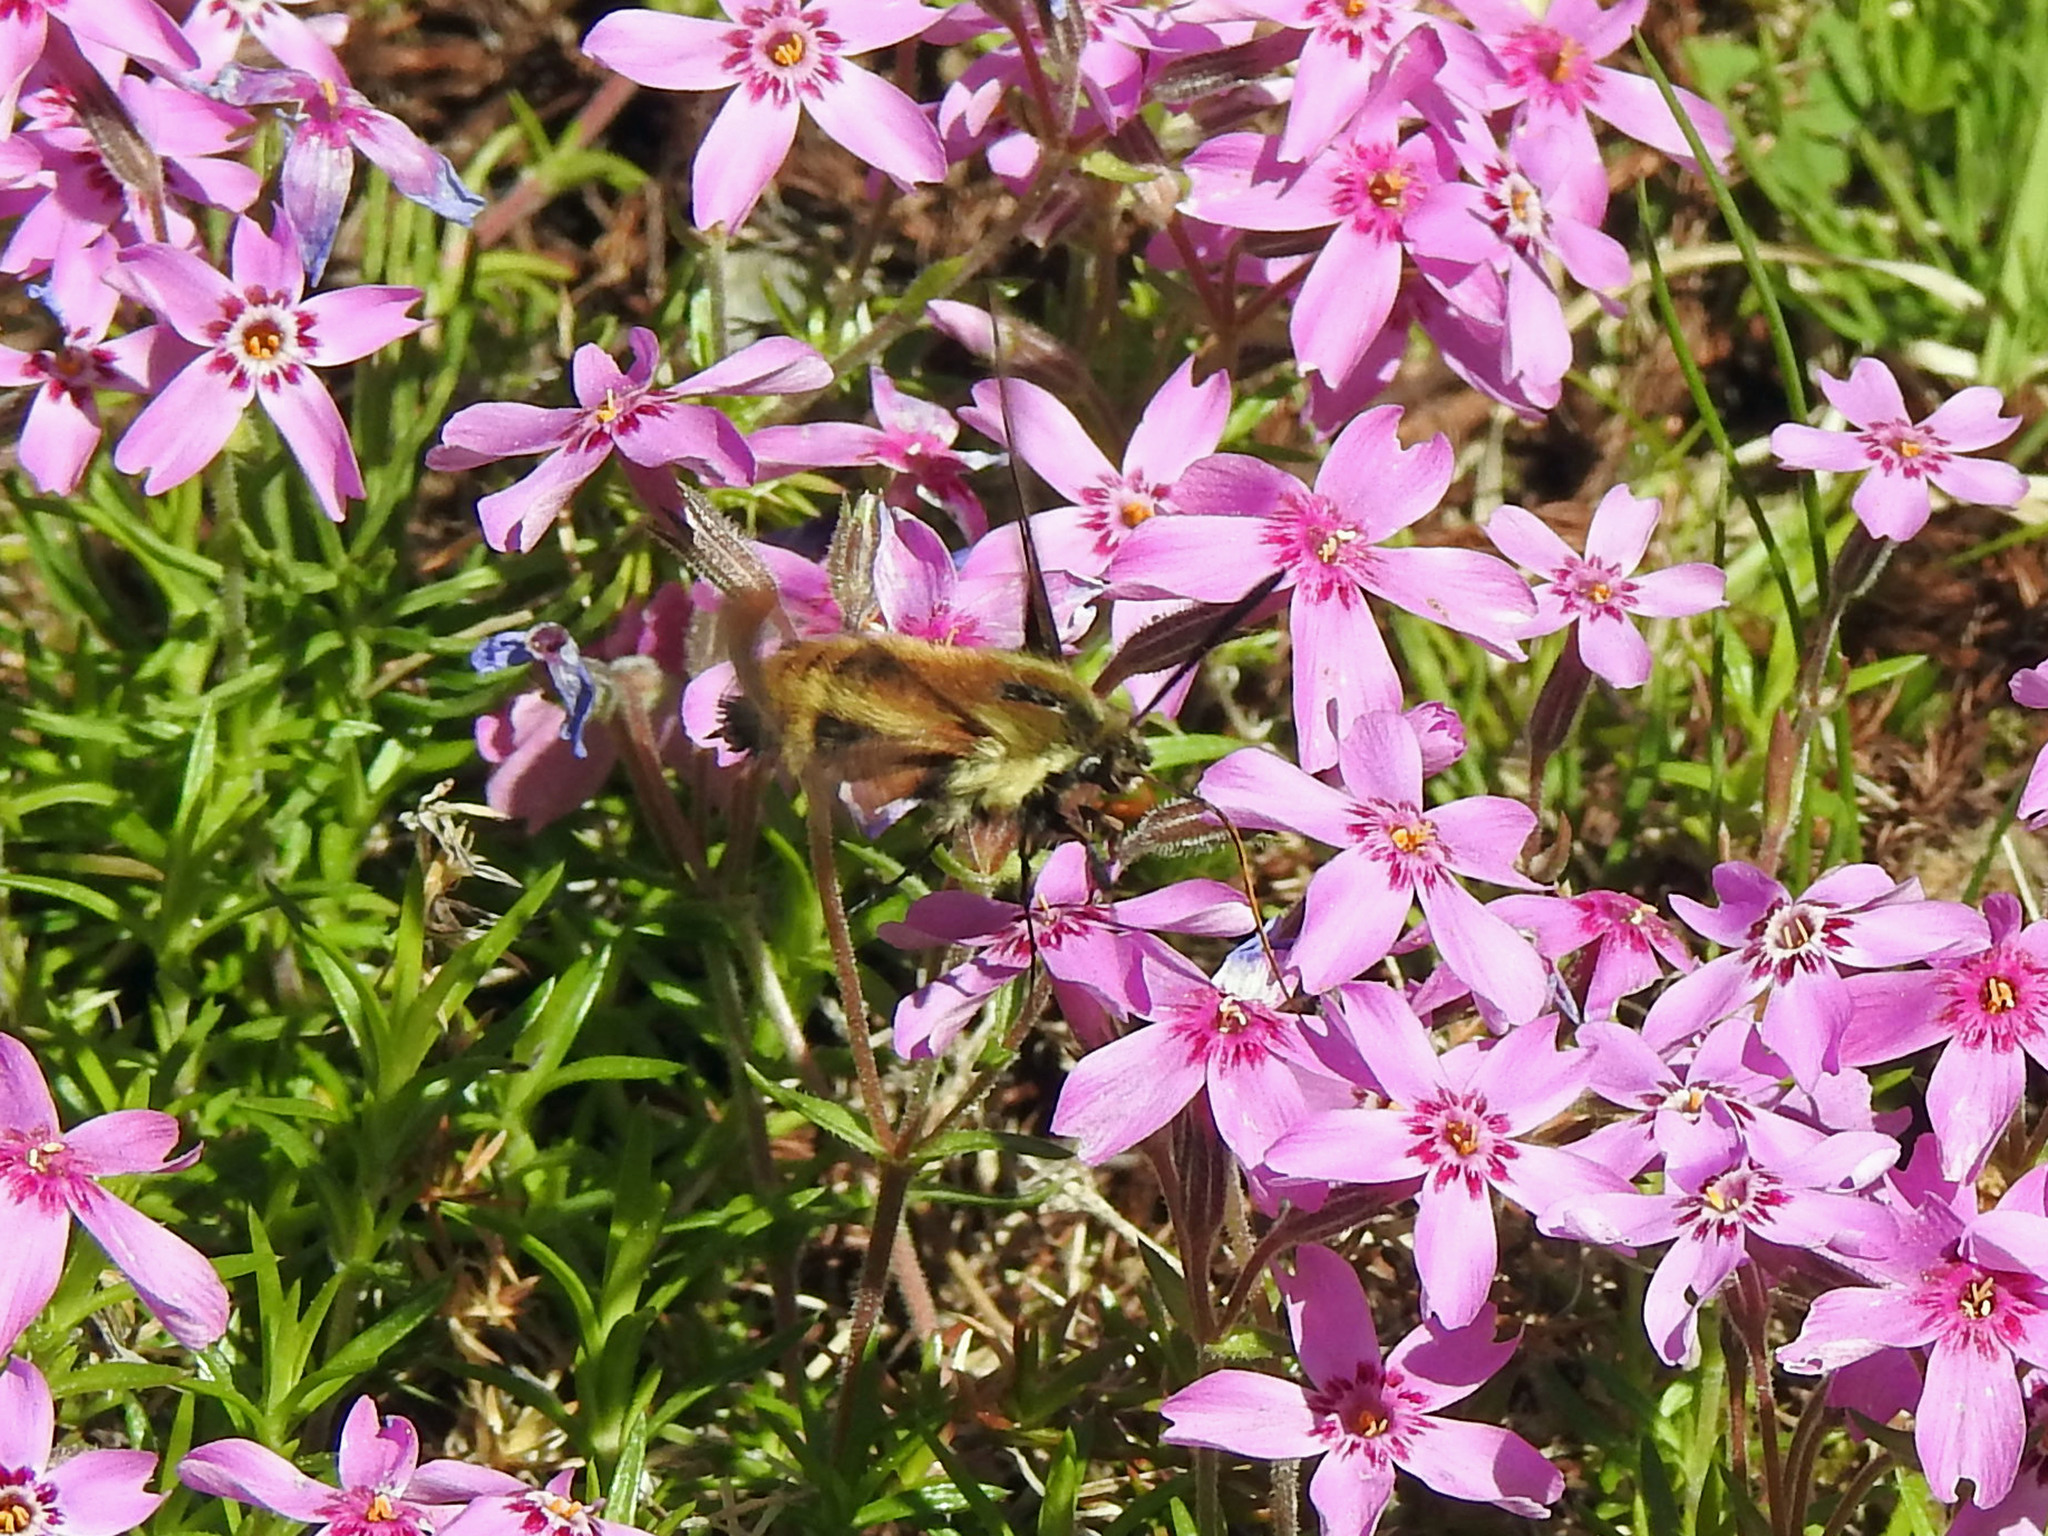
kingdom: Animalia
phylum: Arthropoda
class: Insecta
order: Lepidoptera
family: Sphingidae
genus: Hemaris
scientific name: Hemaris diffinis
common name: Bumblebee moth
